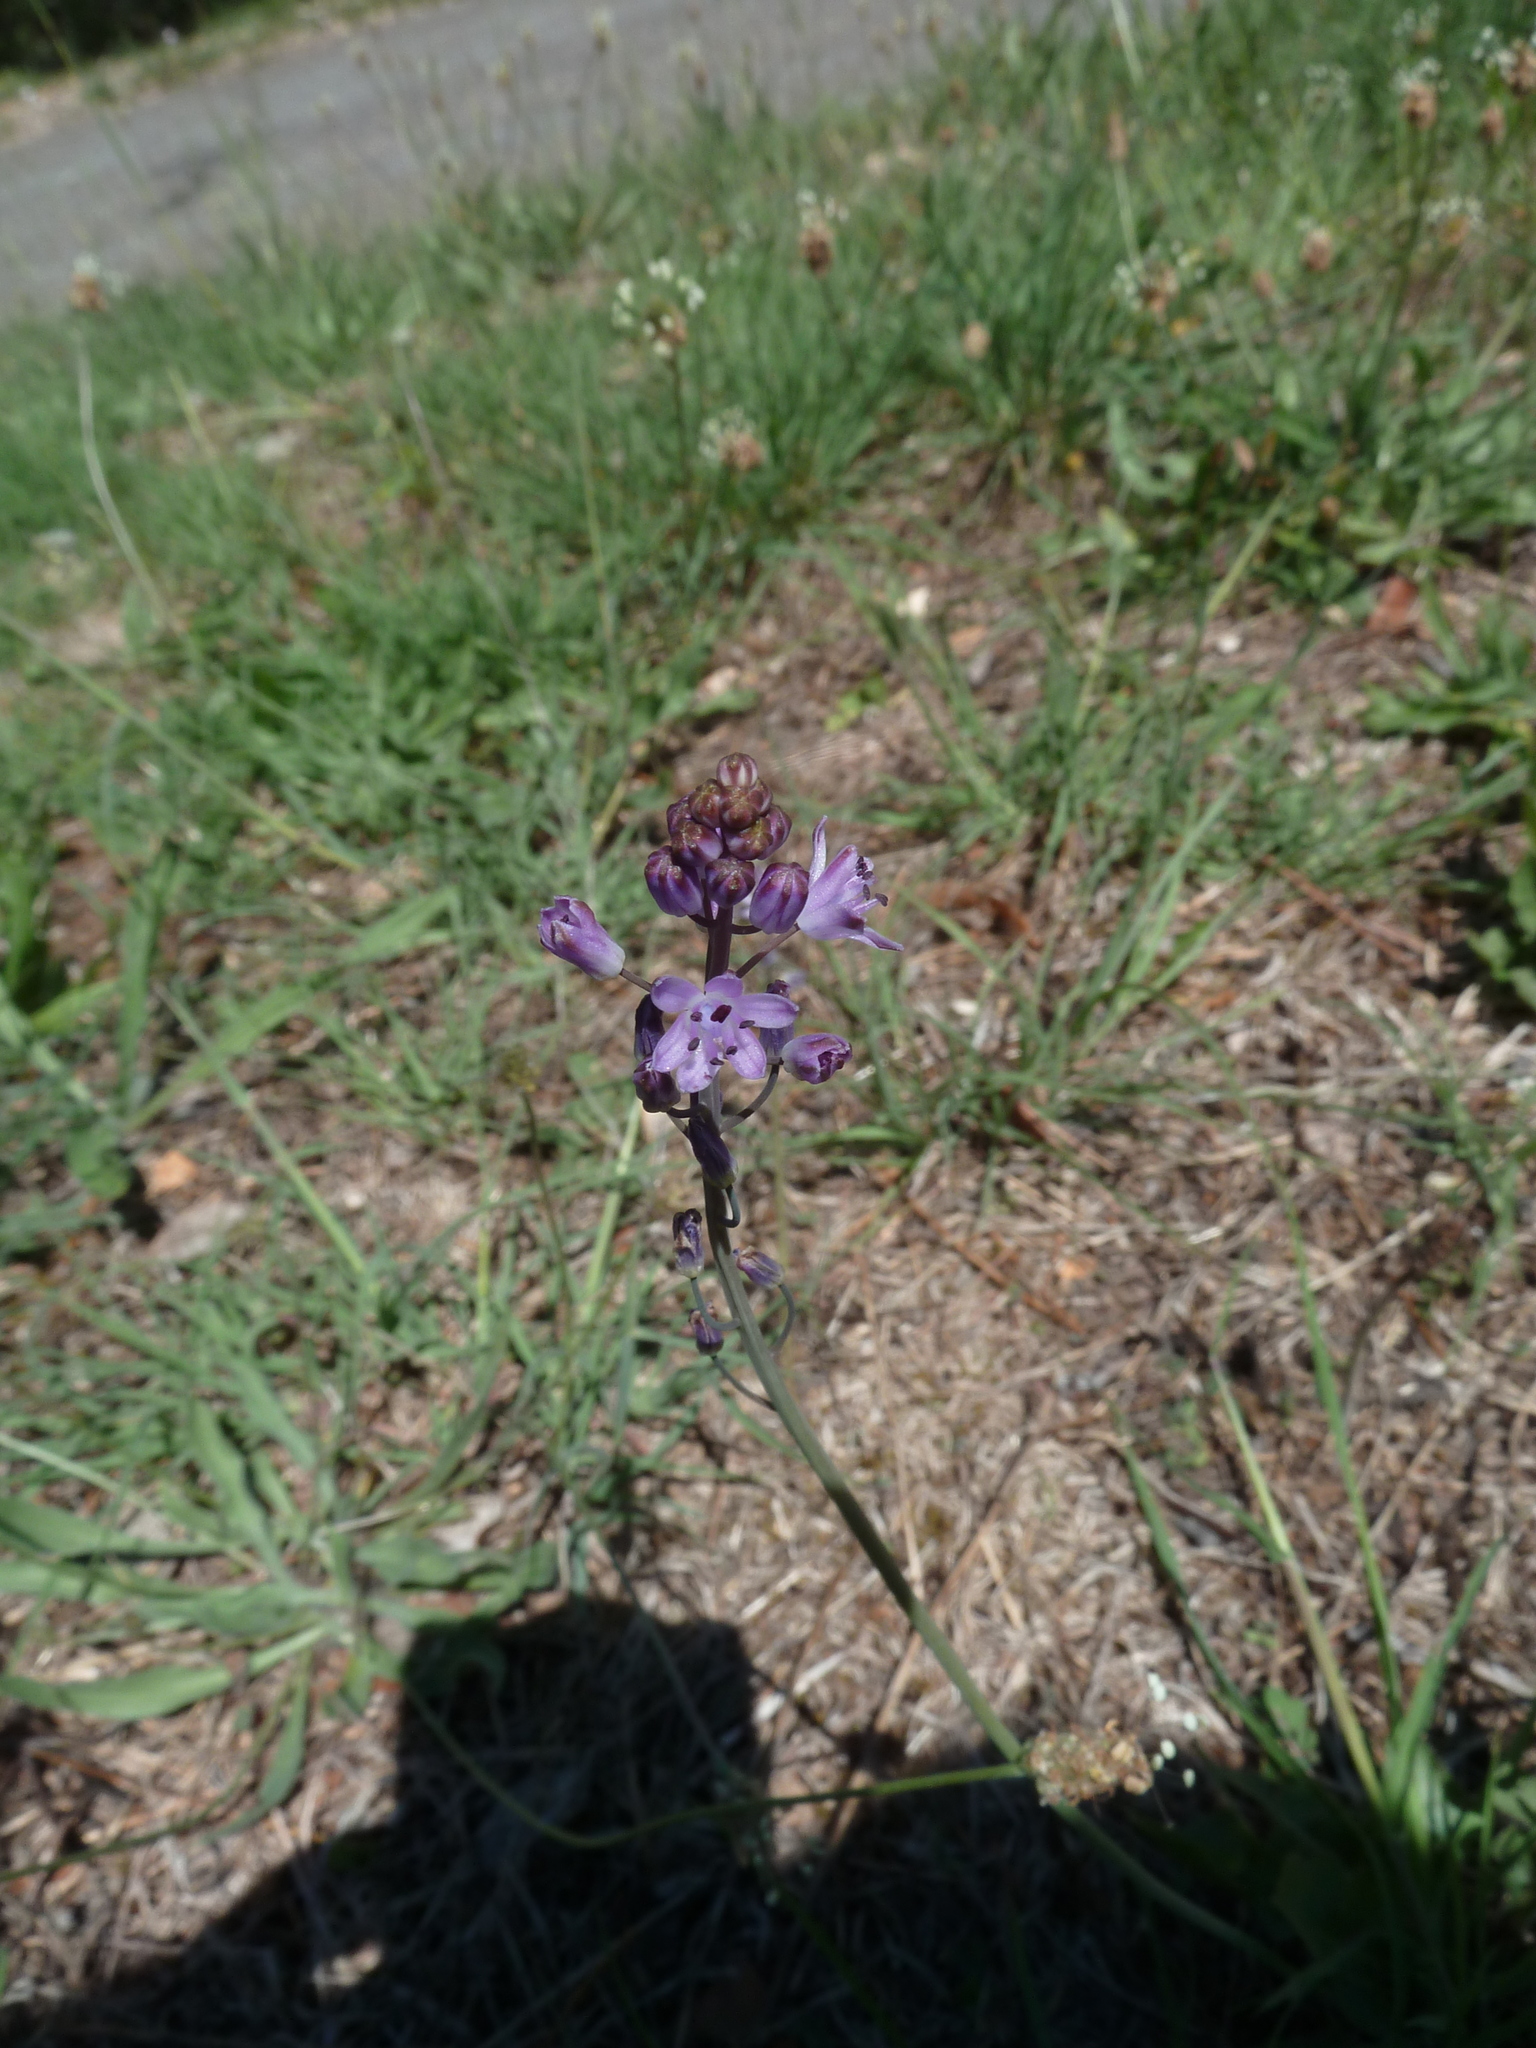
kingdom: Plantae
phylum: Tracheophyta
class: Liliopsida
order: Asparagales
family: Asparagaceae
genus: Prospero
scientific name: Prospero autumnale
